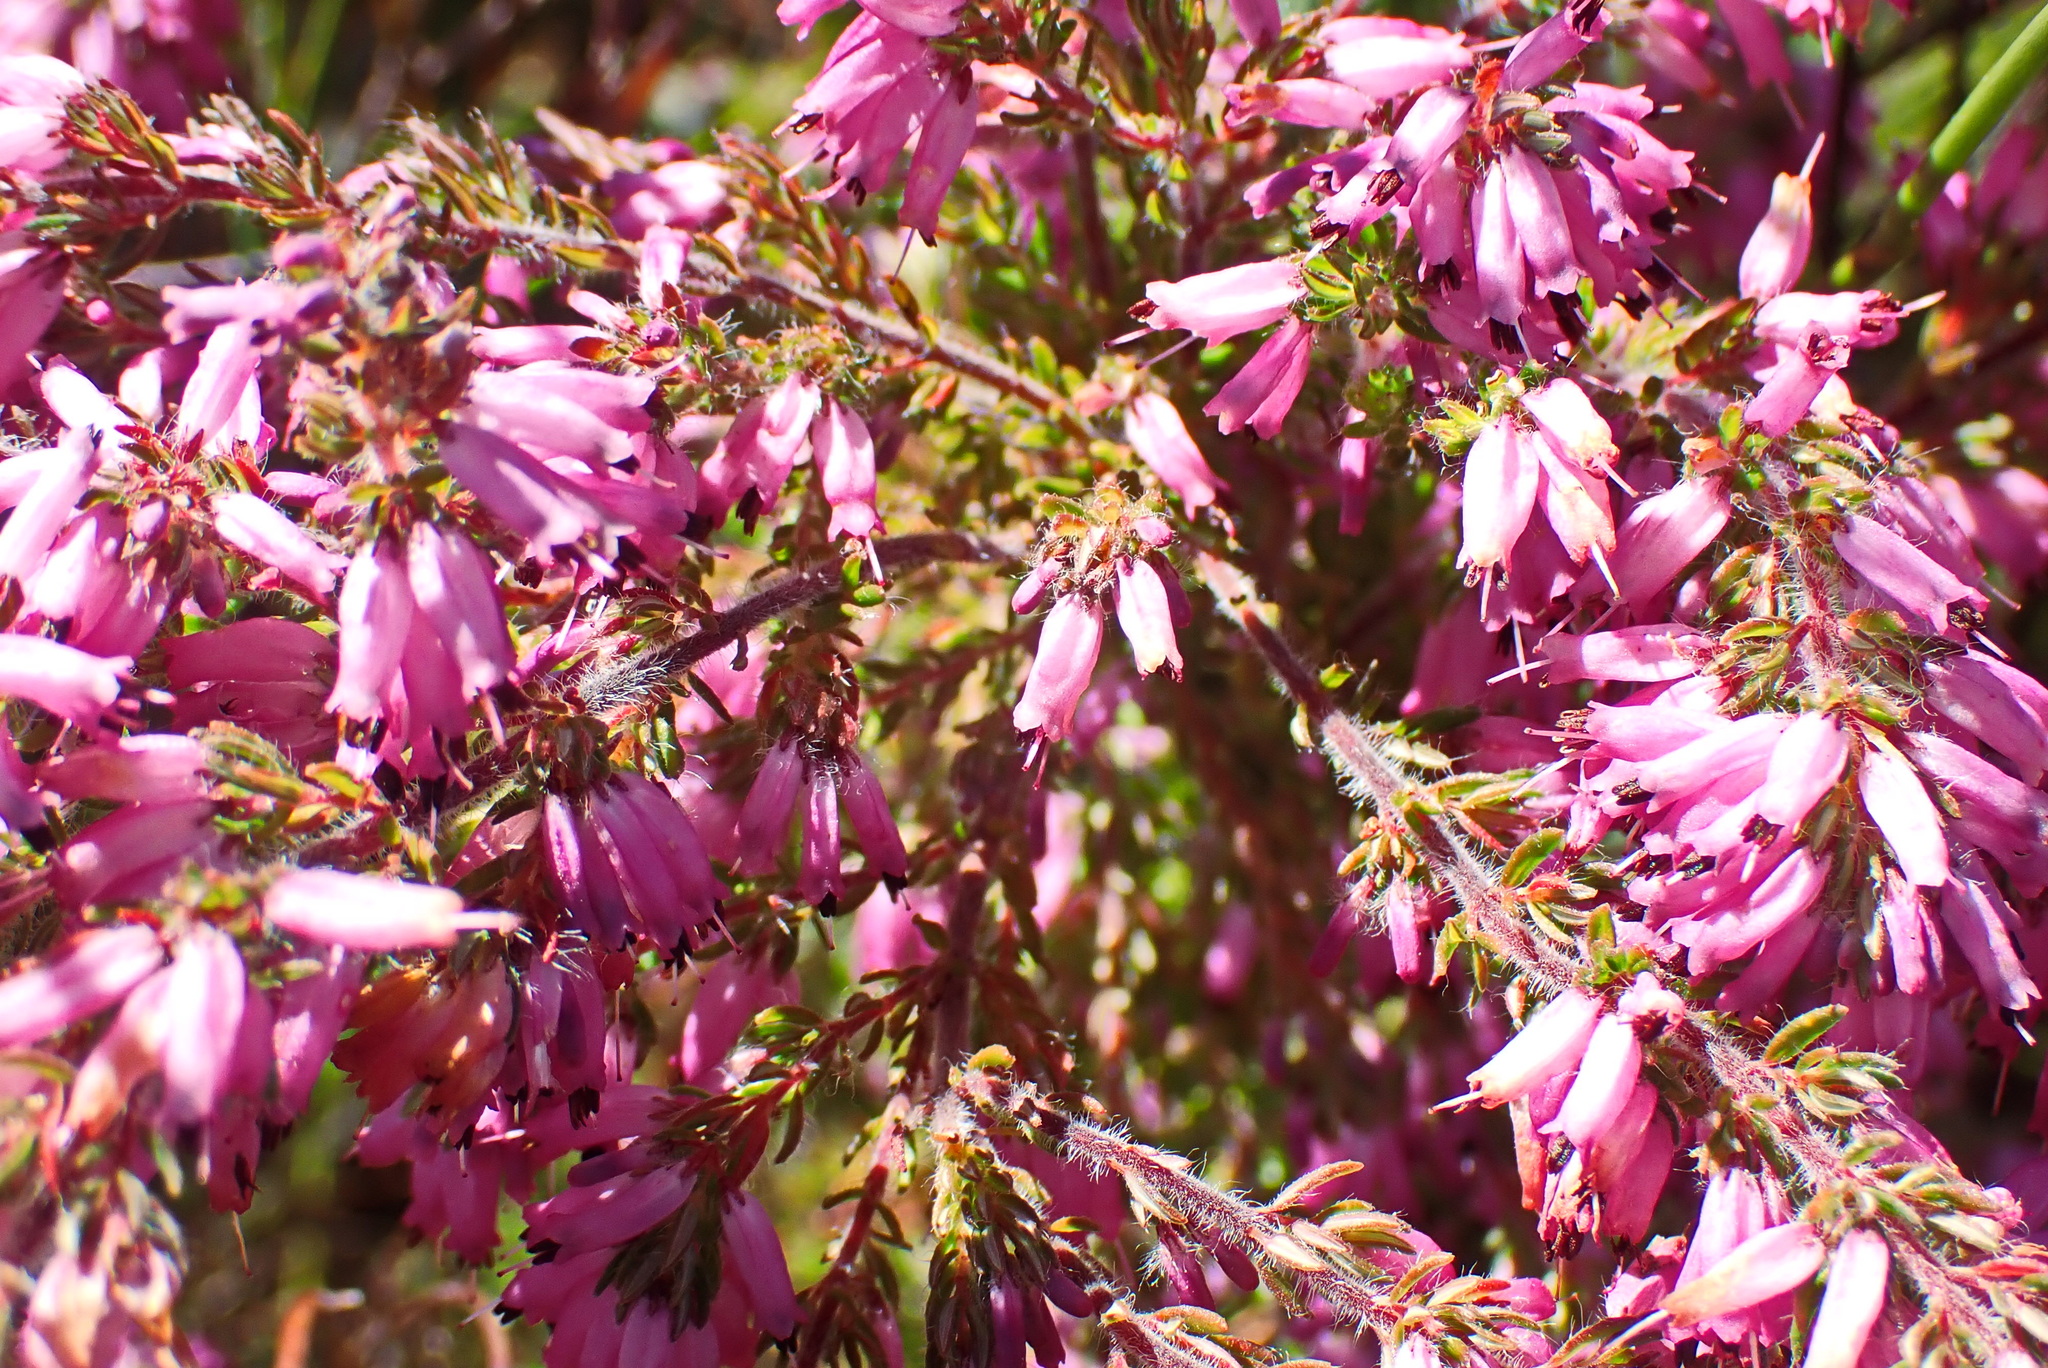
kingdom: Plantae
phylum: Tracheophyta
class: Magnoliopsida
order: Ericales
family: Ericaceae
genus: Erica
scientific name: Erica longimontana
